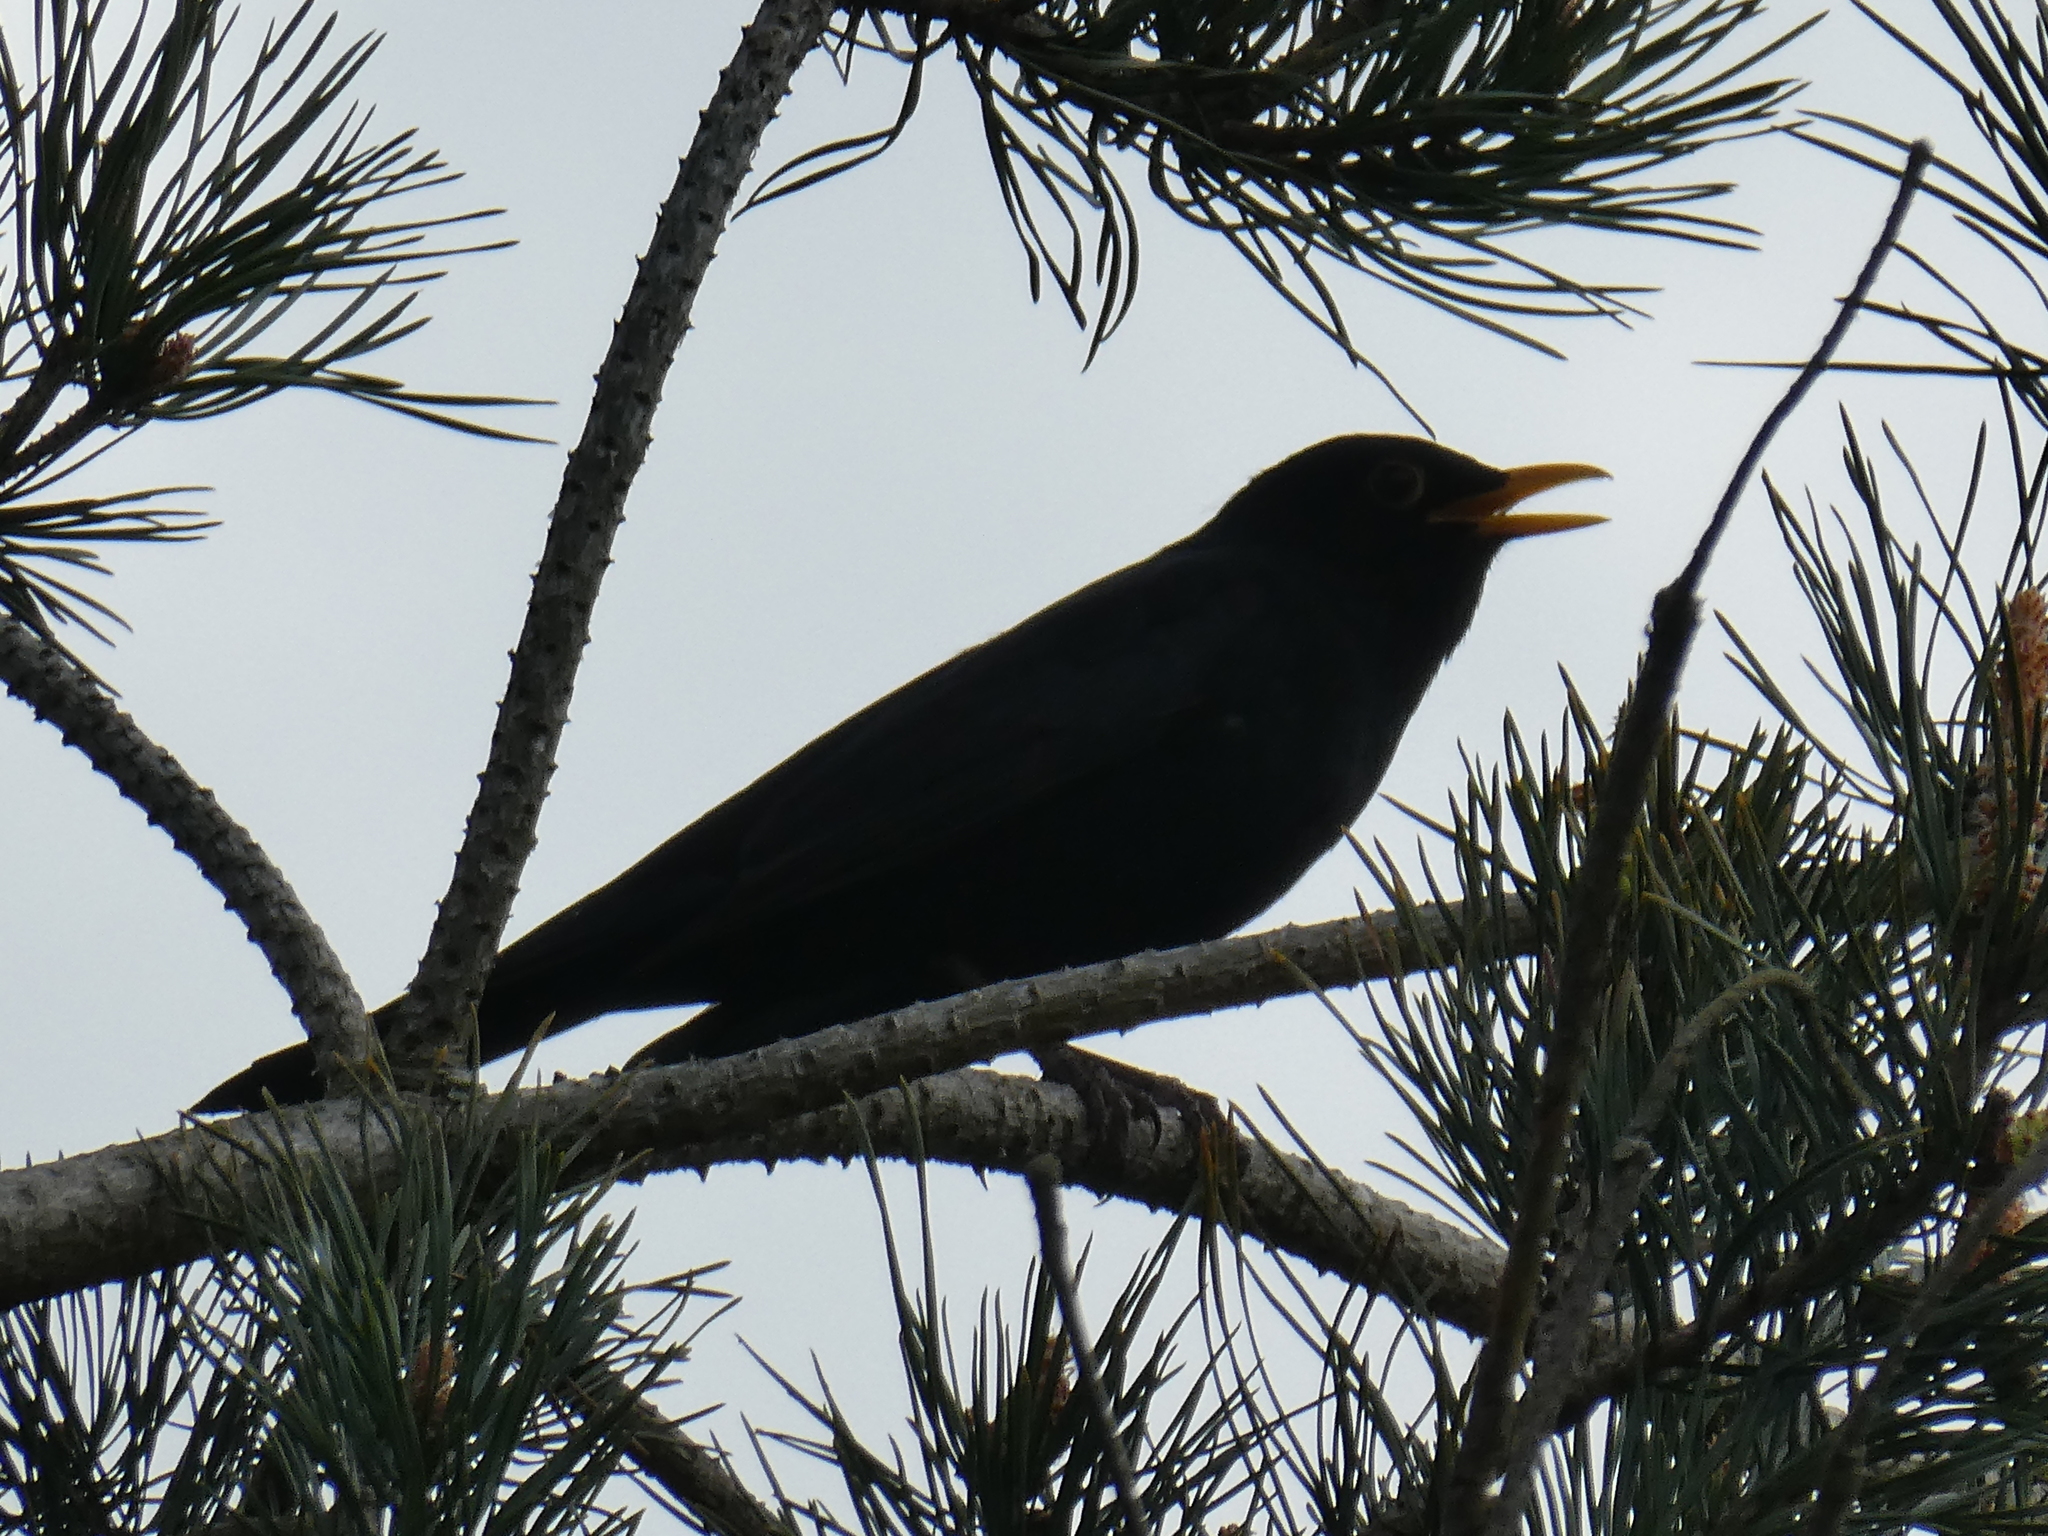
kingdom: Animalia
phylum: Chordata
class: Aves
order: Passeriformes
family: Turdidae
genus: Turdus
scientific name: Turdus merula
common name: Common blackbird
